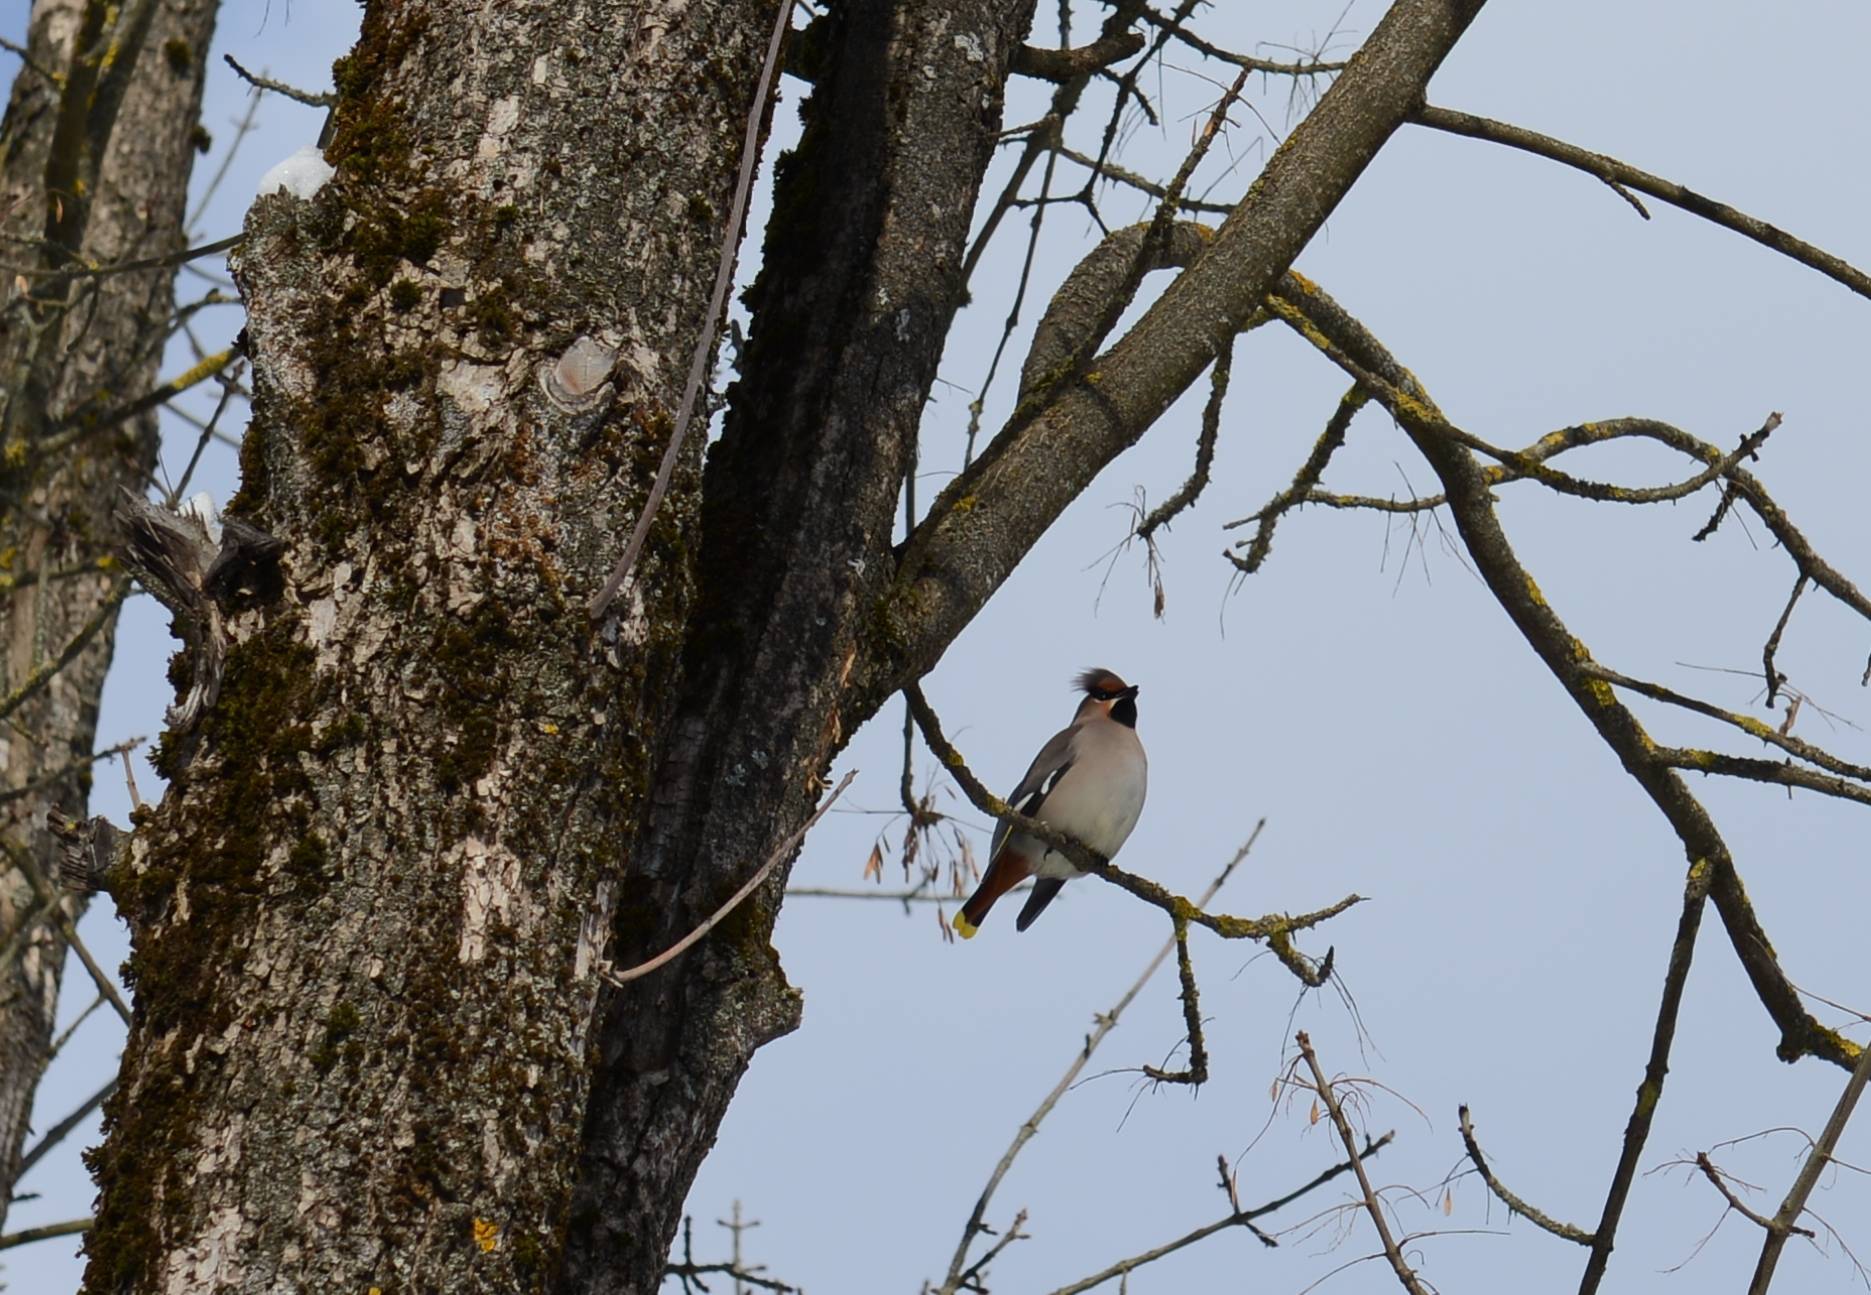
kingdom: Animalia
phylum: Chordata
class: Aves
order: Passeriformes
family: Bombycillidae
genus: Bombycilla
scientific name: Bombycilla garrulus
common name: Bohemian waxwing
